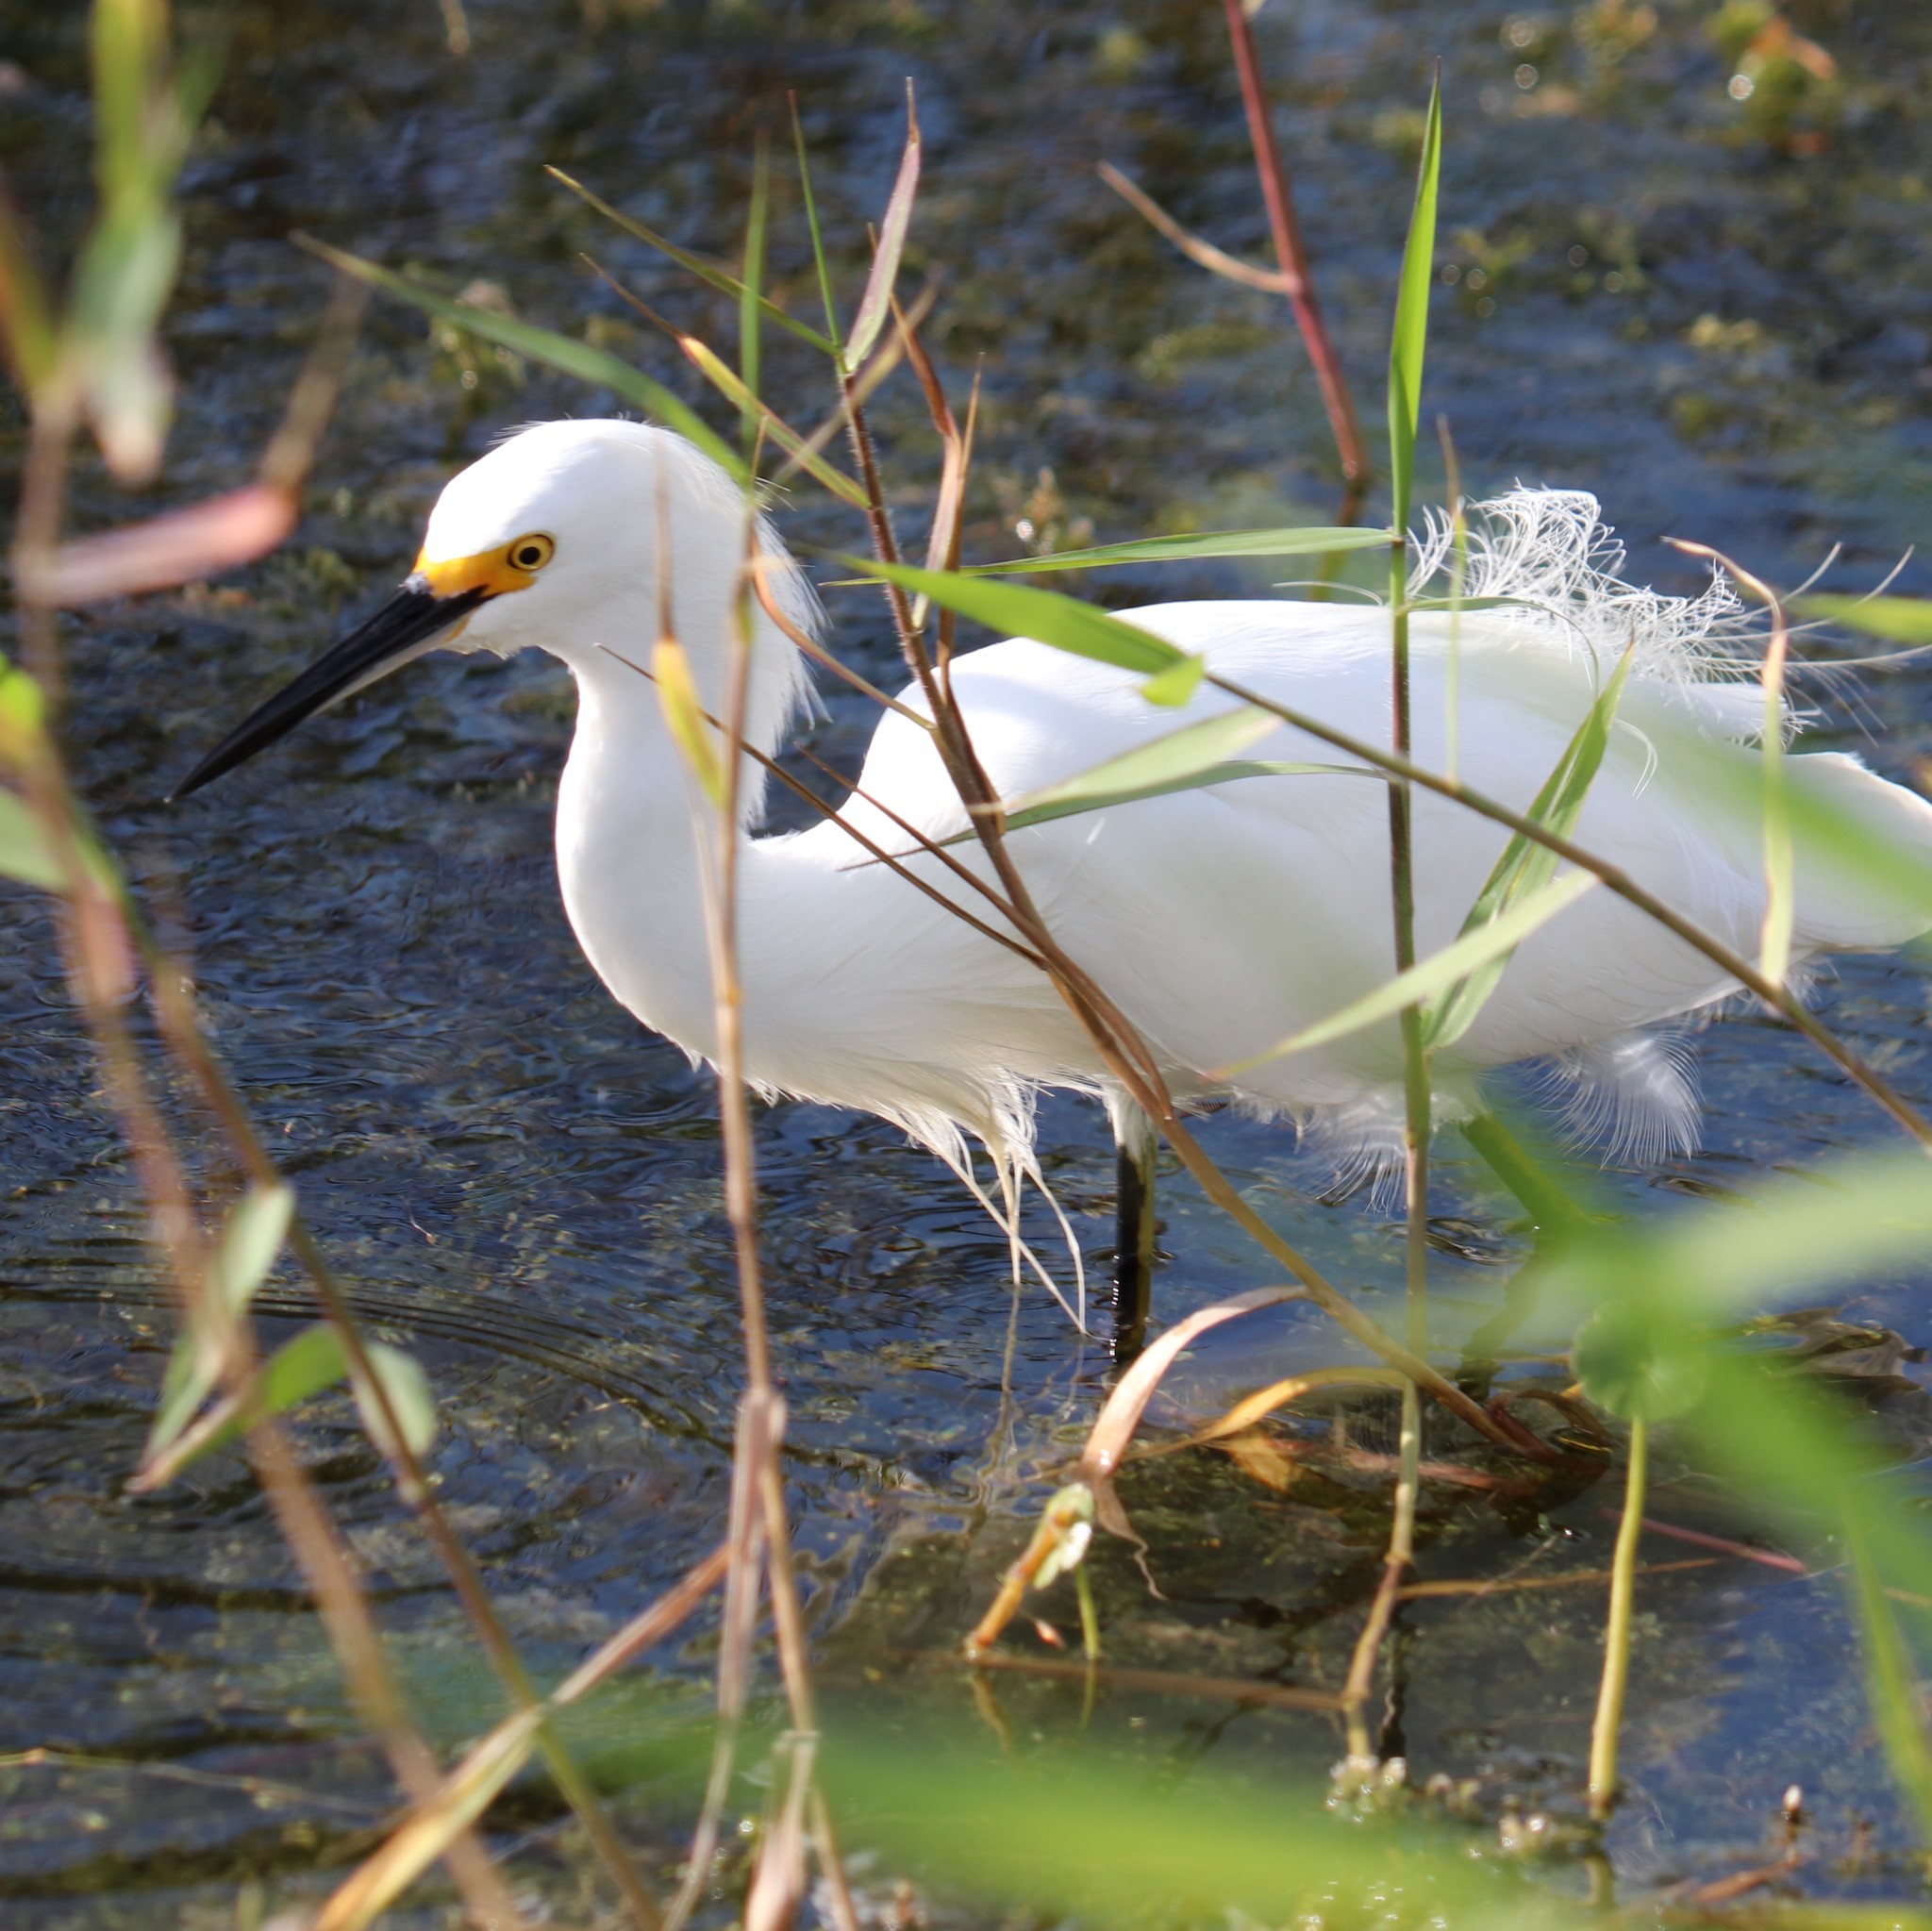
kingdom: Animalia
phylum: Chordata
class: Aves
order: Pelecaniformes
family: Ardeidae
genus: Egretta
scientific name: Egretta thula
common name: Snowy egret
